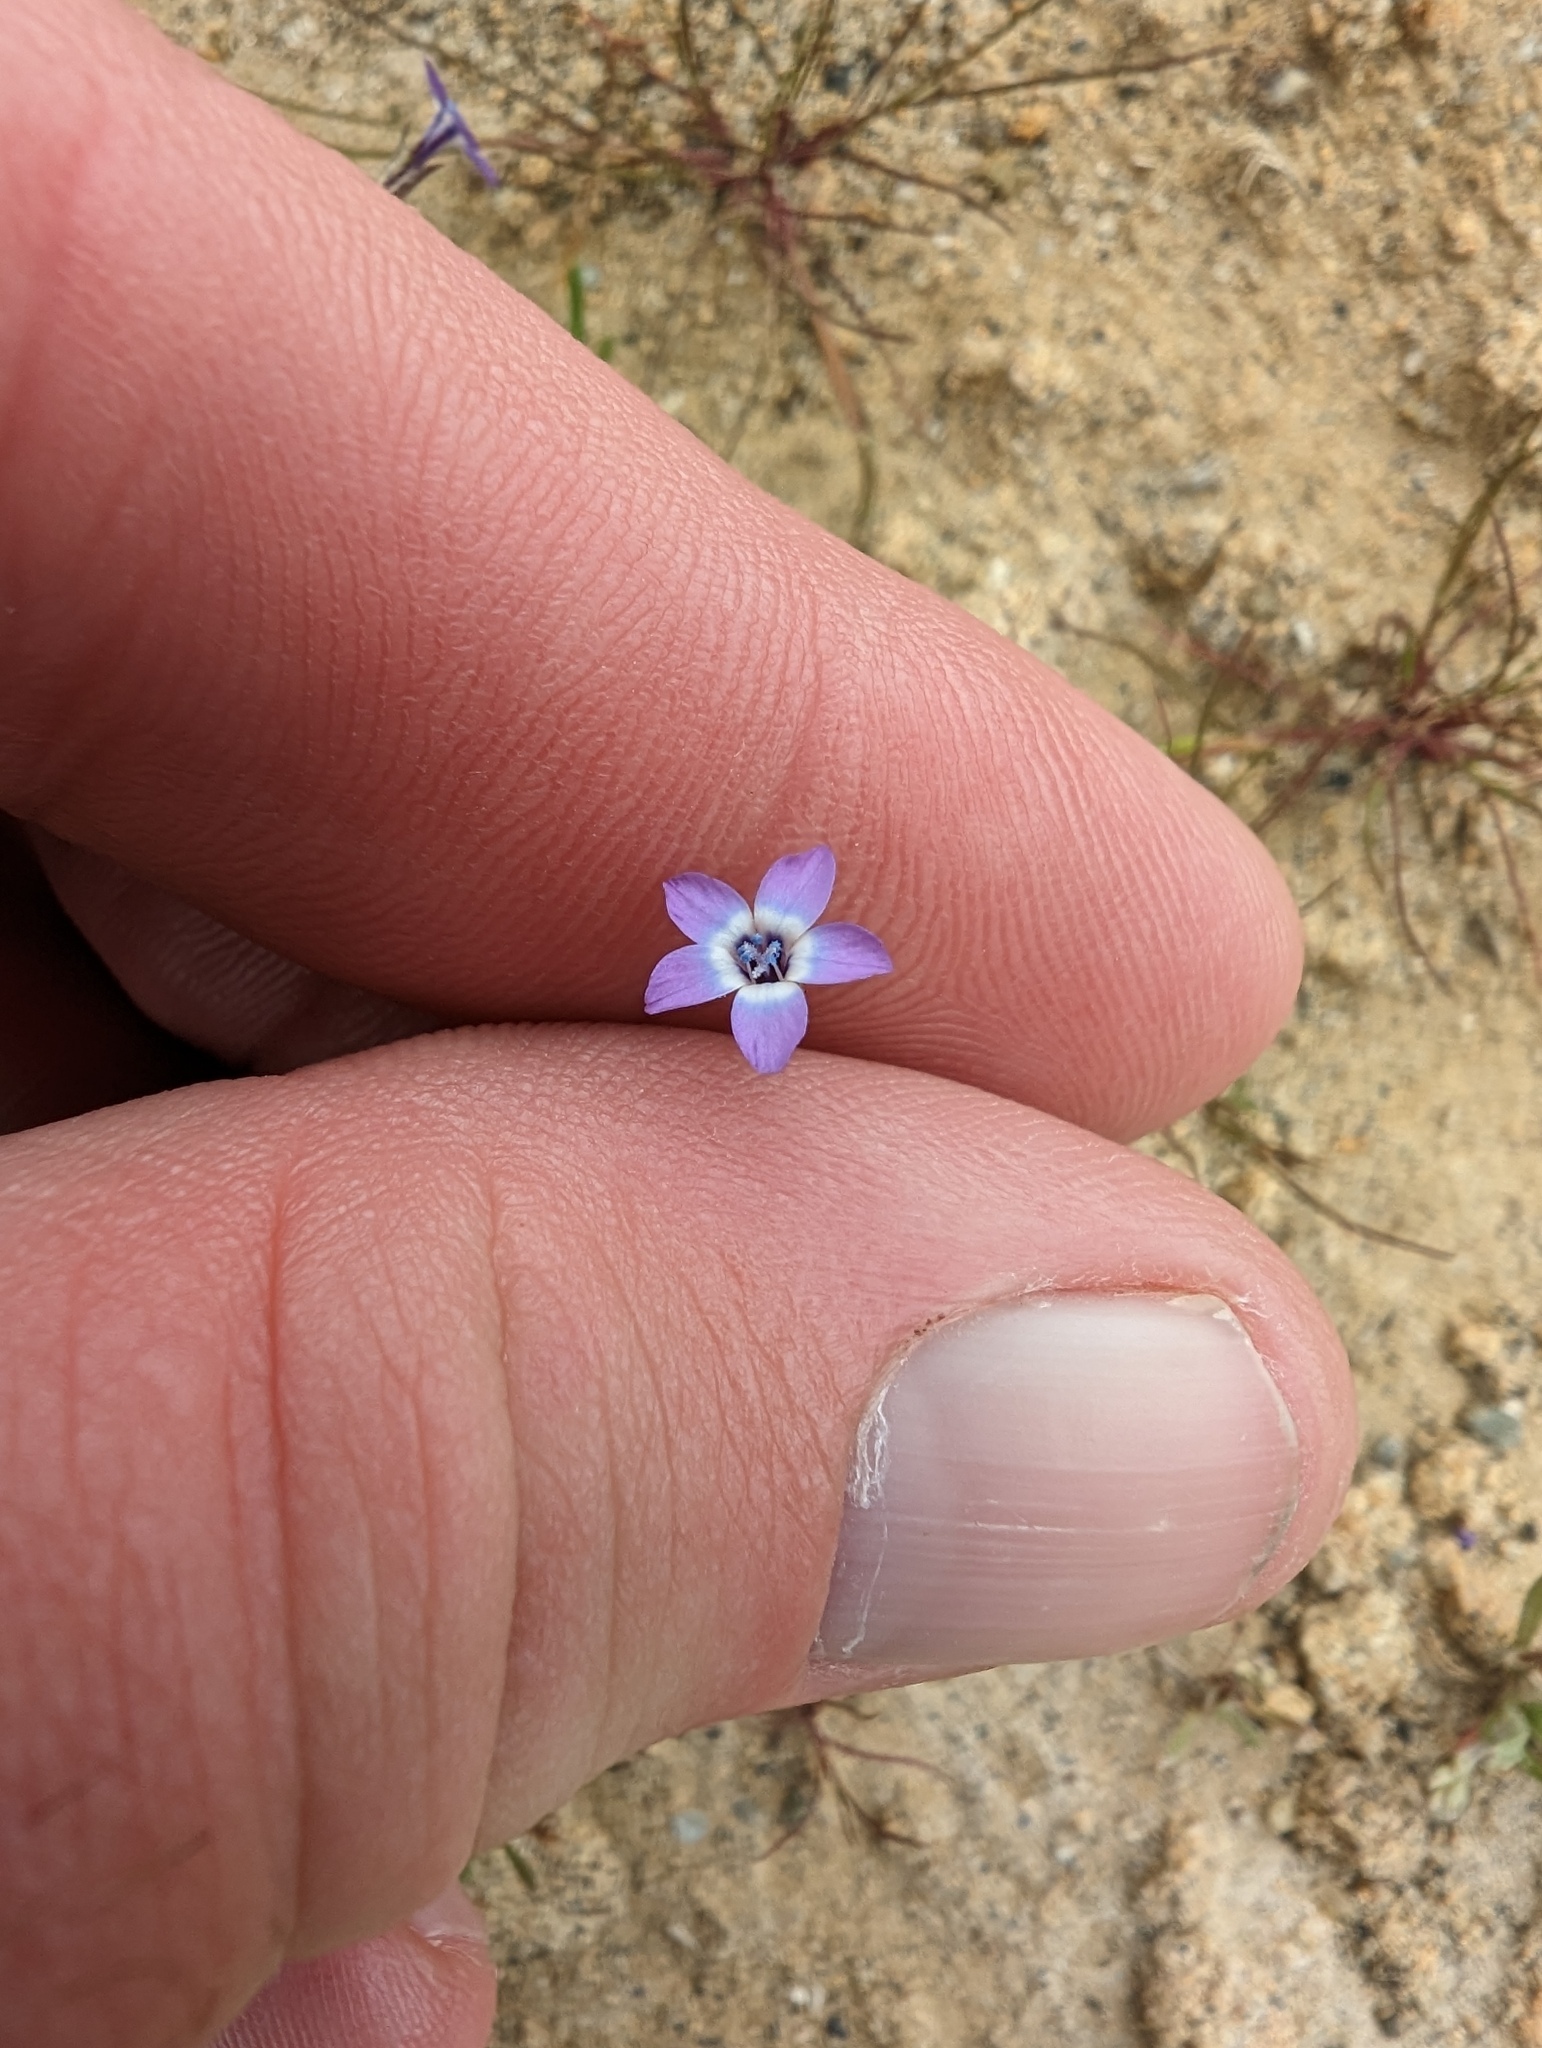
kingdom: Plantae
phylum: Tracheophyta
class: Magnoliopsida
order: Ericales
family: Polemoniaceae
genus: Gilia
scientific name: Gilia minor
